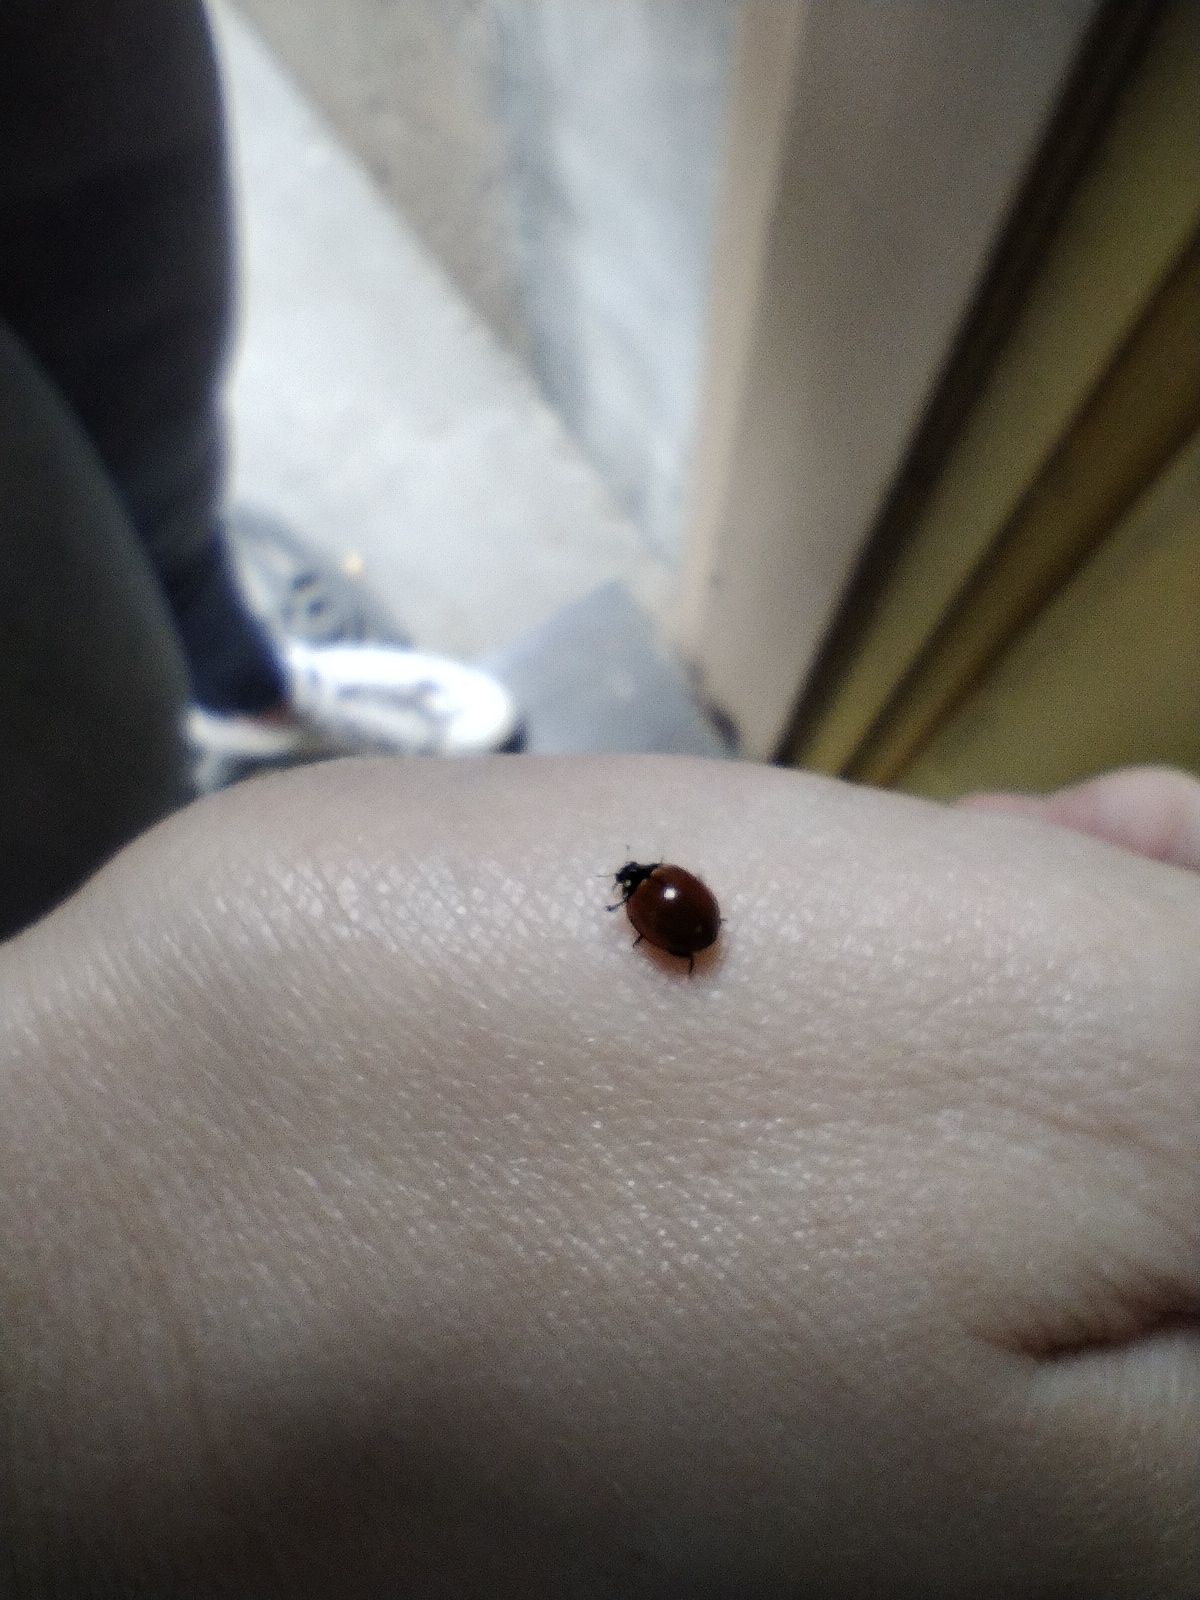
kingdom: Animalia
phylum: Arthropoda
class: Insecta
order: Coleoptera
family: Coccinellidae
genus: Cycloneda
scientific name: Cycloneda sanguinea
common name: Ladybird beetle
